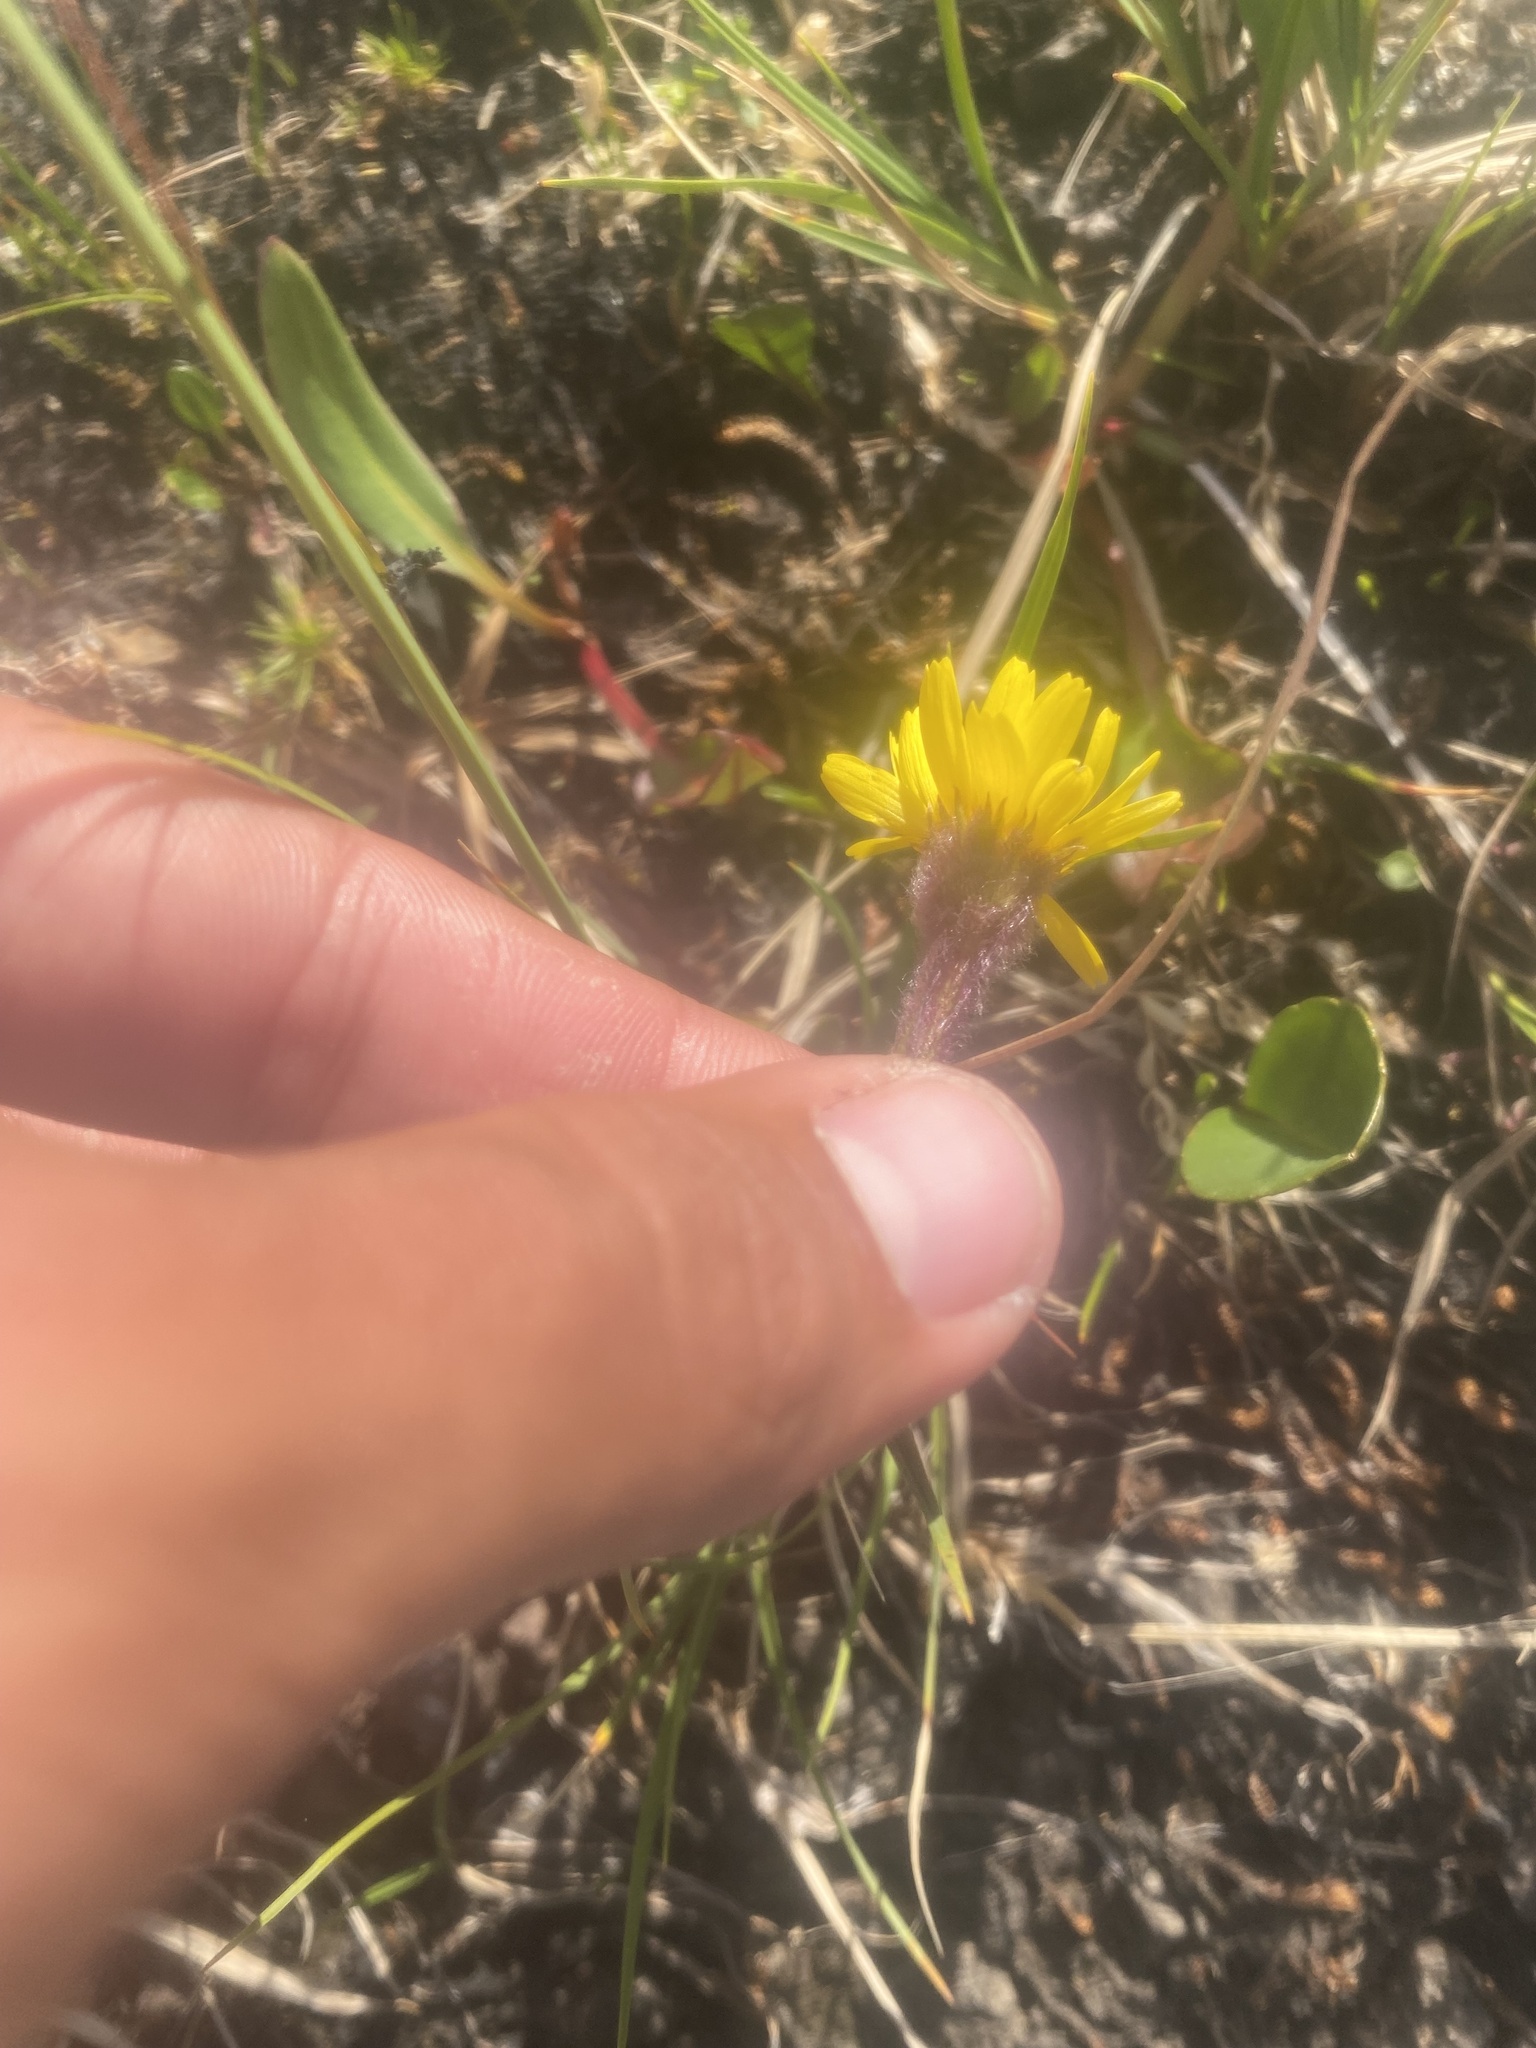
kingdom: Plantae
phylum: Tracheophyta
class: Magnoliopsida
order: Asterales
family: Asteraceae
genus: Tephroseris
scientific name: Tephroseris integrifolia
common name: Field fleawort
